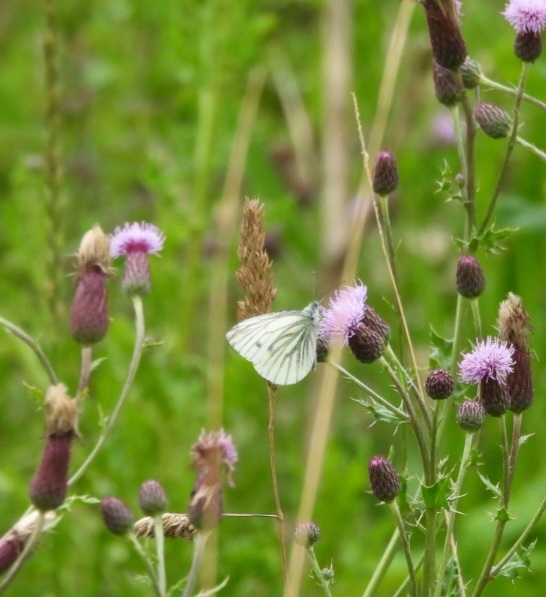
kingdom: Animalia
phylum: Arthropoda
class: Insecta
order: Lepidoptera
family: Pieridae
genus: Pieris
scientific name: Pieris napi
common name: Green-veined white
